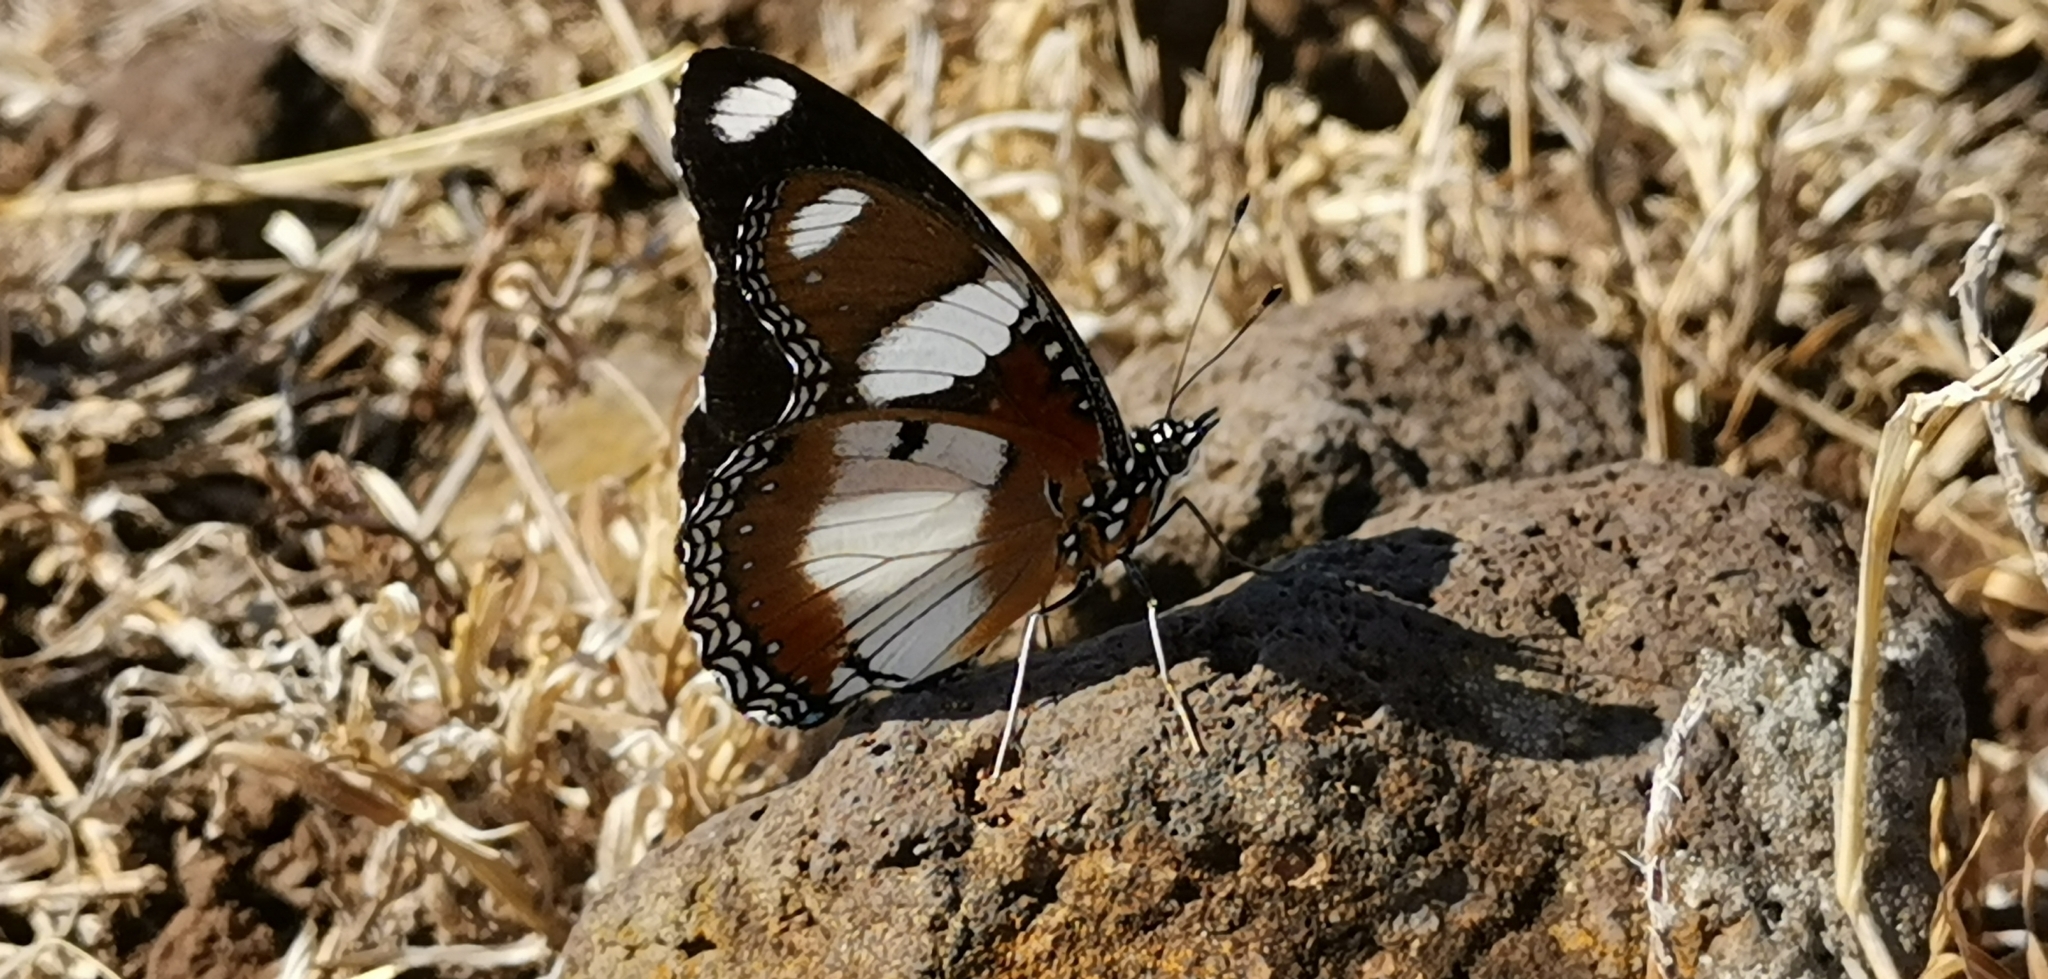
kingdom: Animalia
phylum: Arthropoda
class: Insecta
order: Lepidoptera
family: Nymphalidae
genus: Hypolimnas
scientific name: Hypolimnas misippus
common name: False plain tiger
